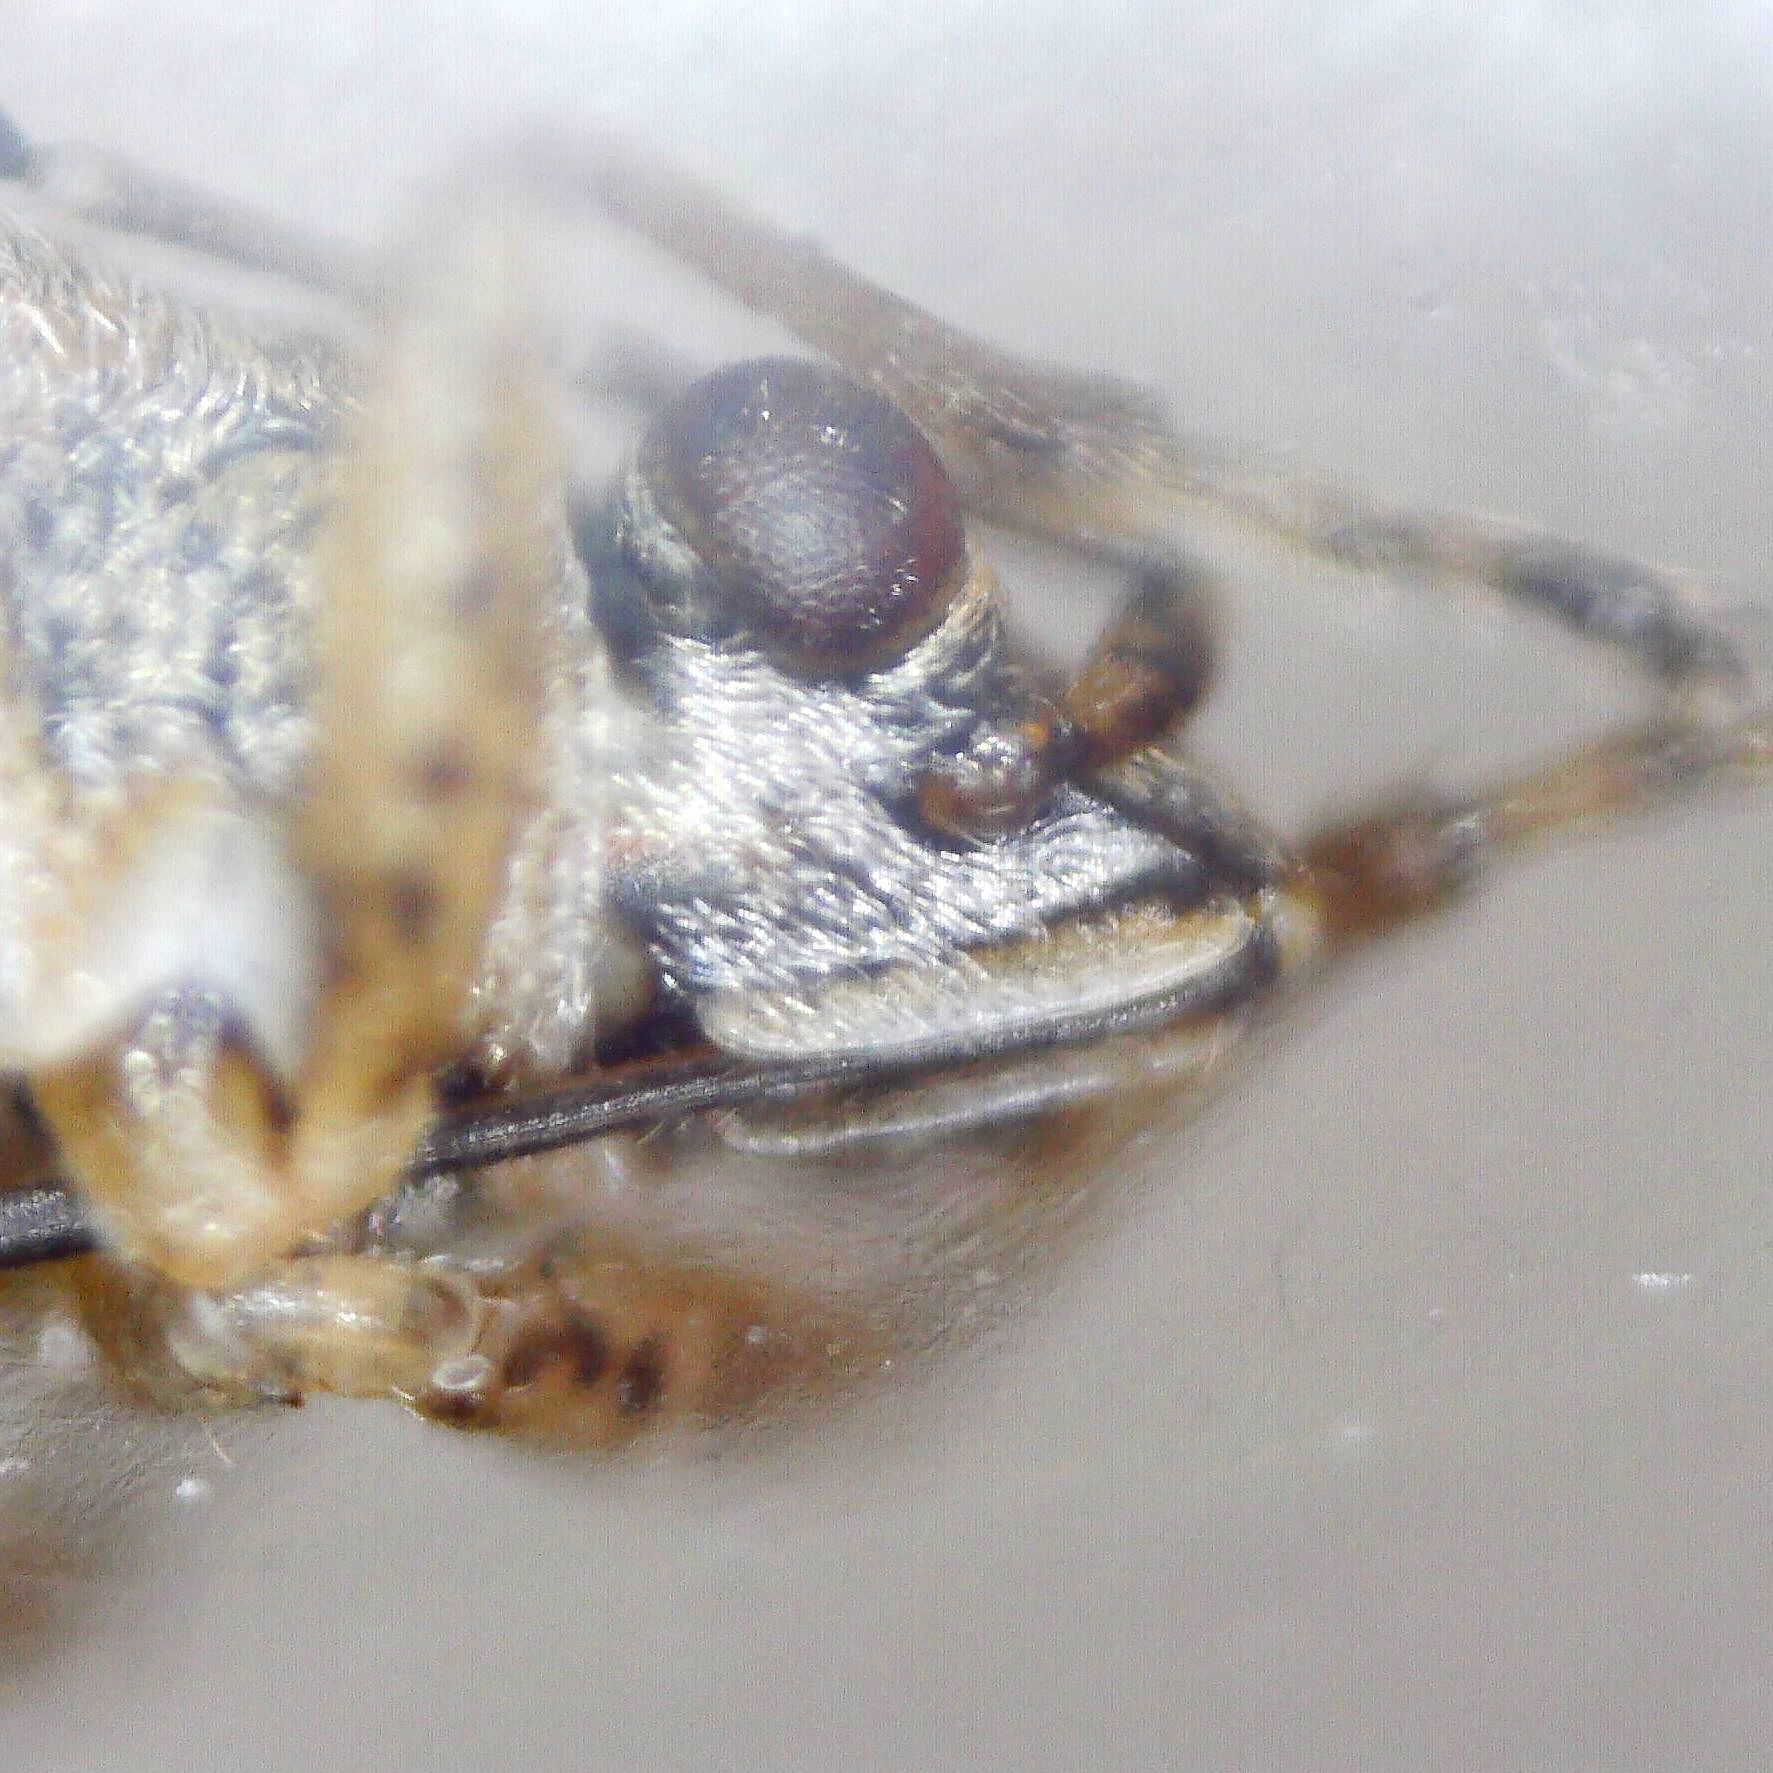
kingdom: Animalia
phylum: Arthropoda
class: Insecta
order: Hemiptera
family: Lygaeidae
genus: Nysius
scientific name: Nysius senecionis
